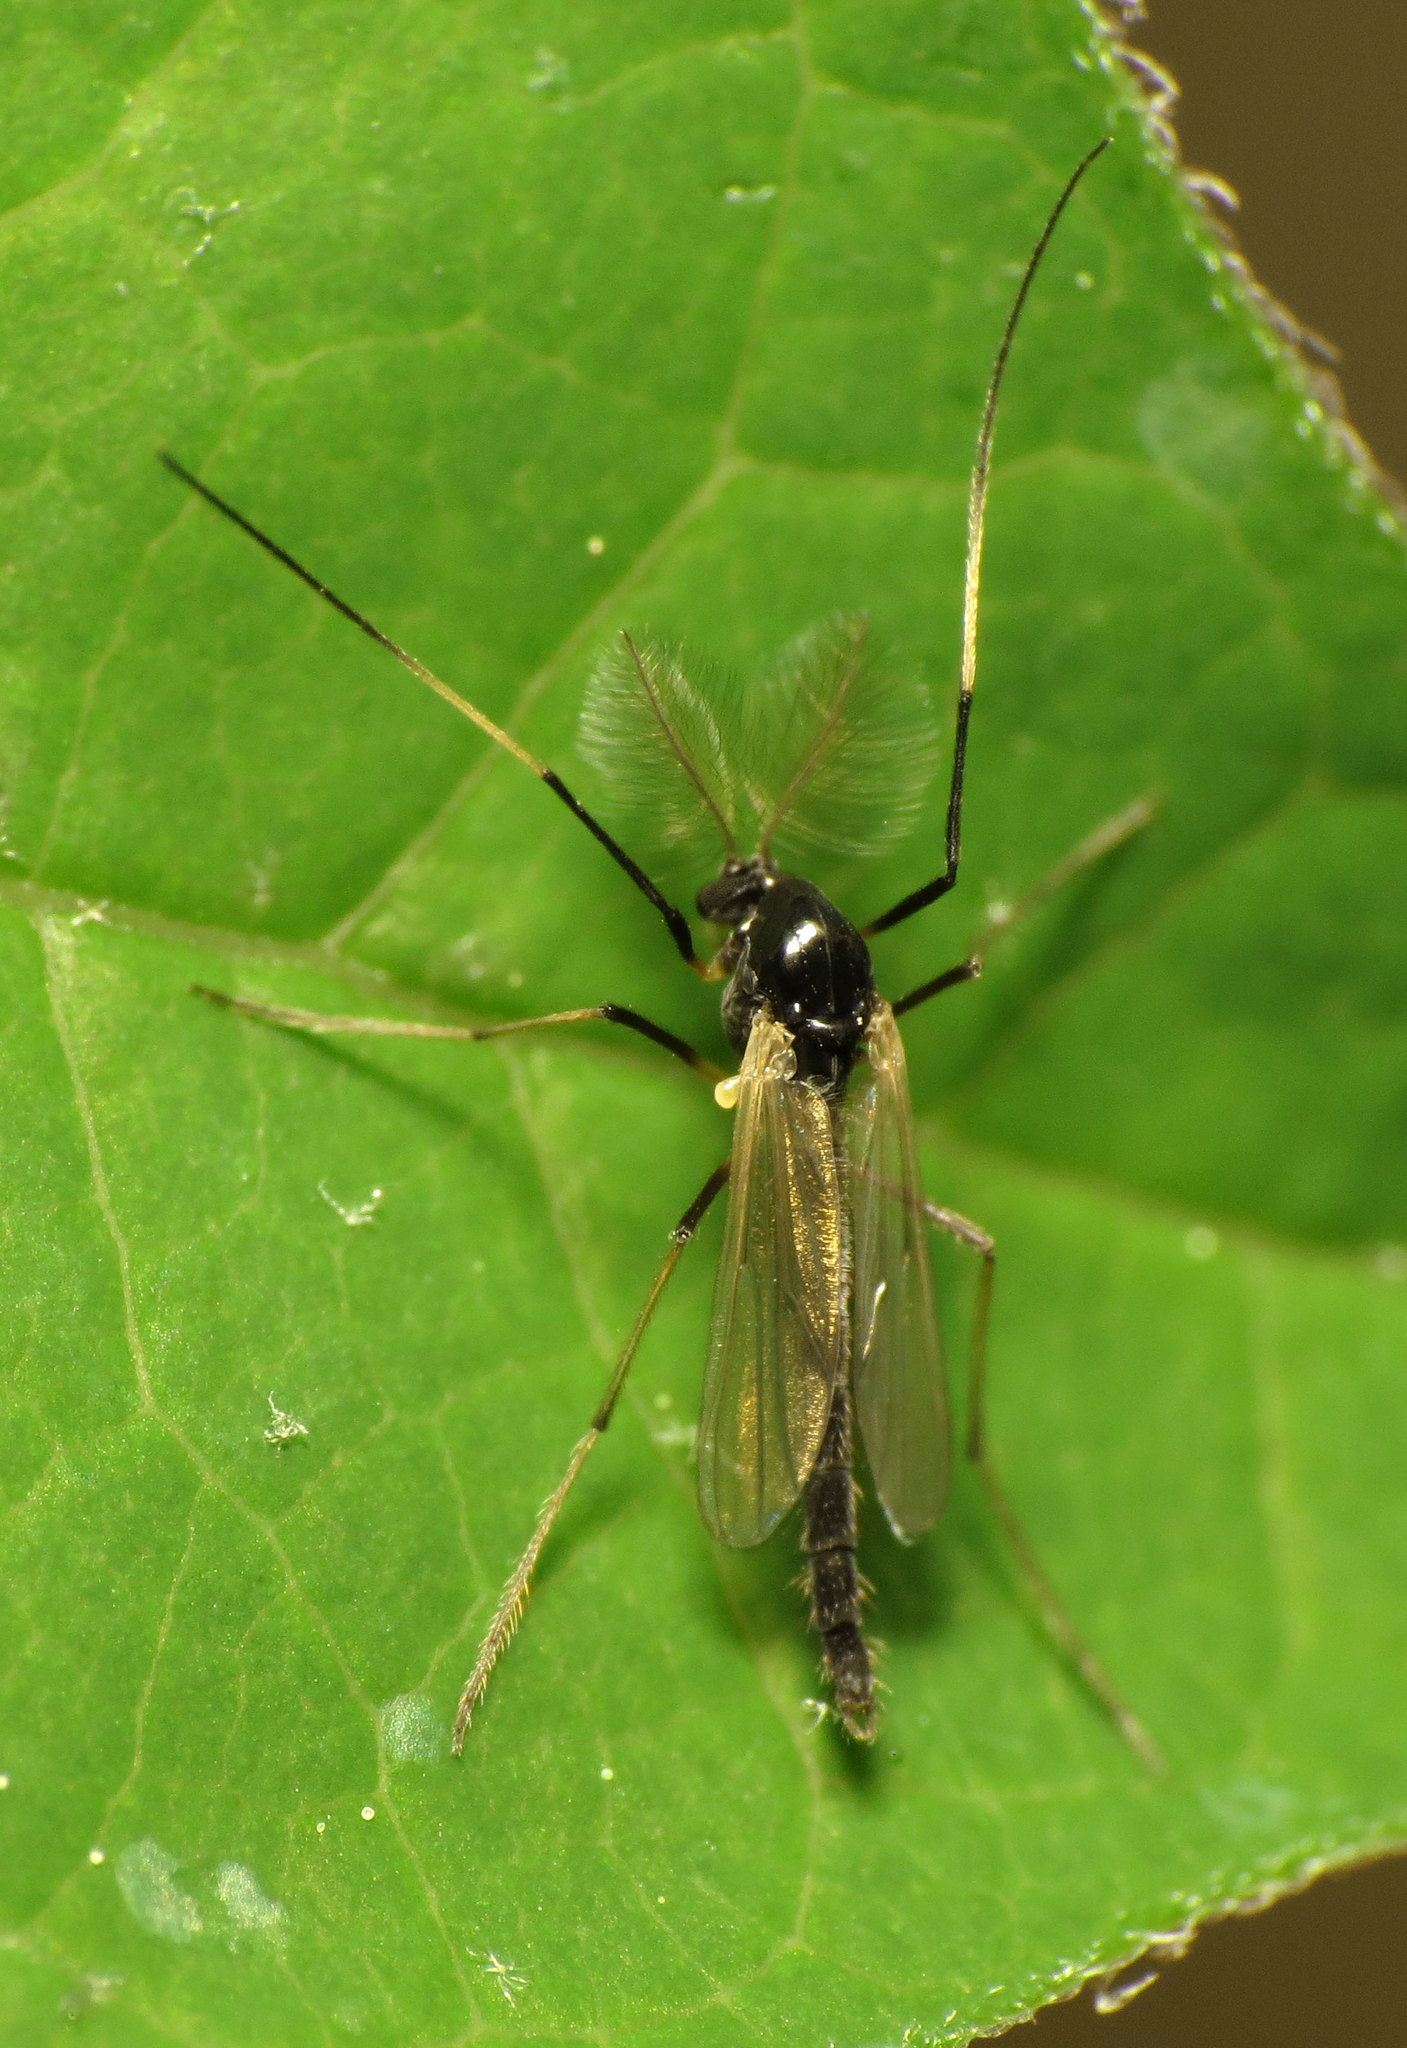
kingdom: Animalia
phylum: Arthropoda
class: Insecta
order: Diptera
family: Chironomidae
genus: Paratendipes
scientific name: Paratendipes albimanus
